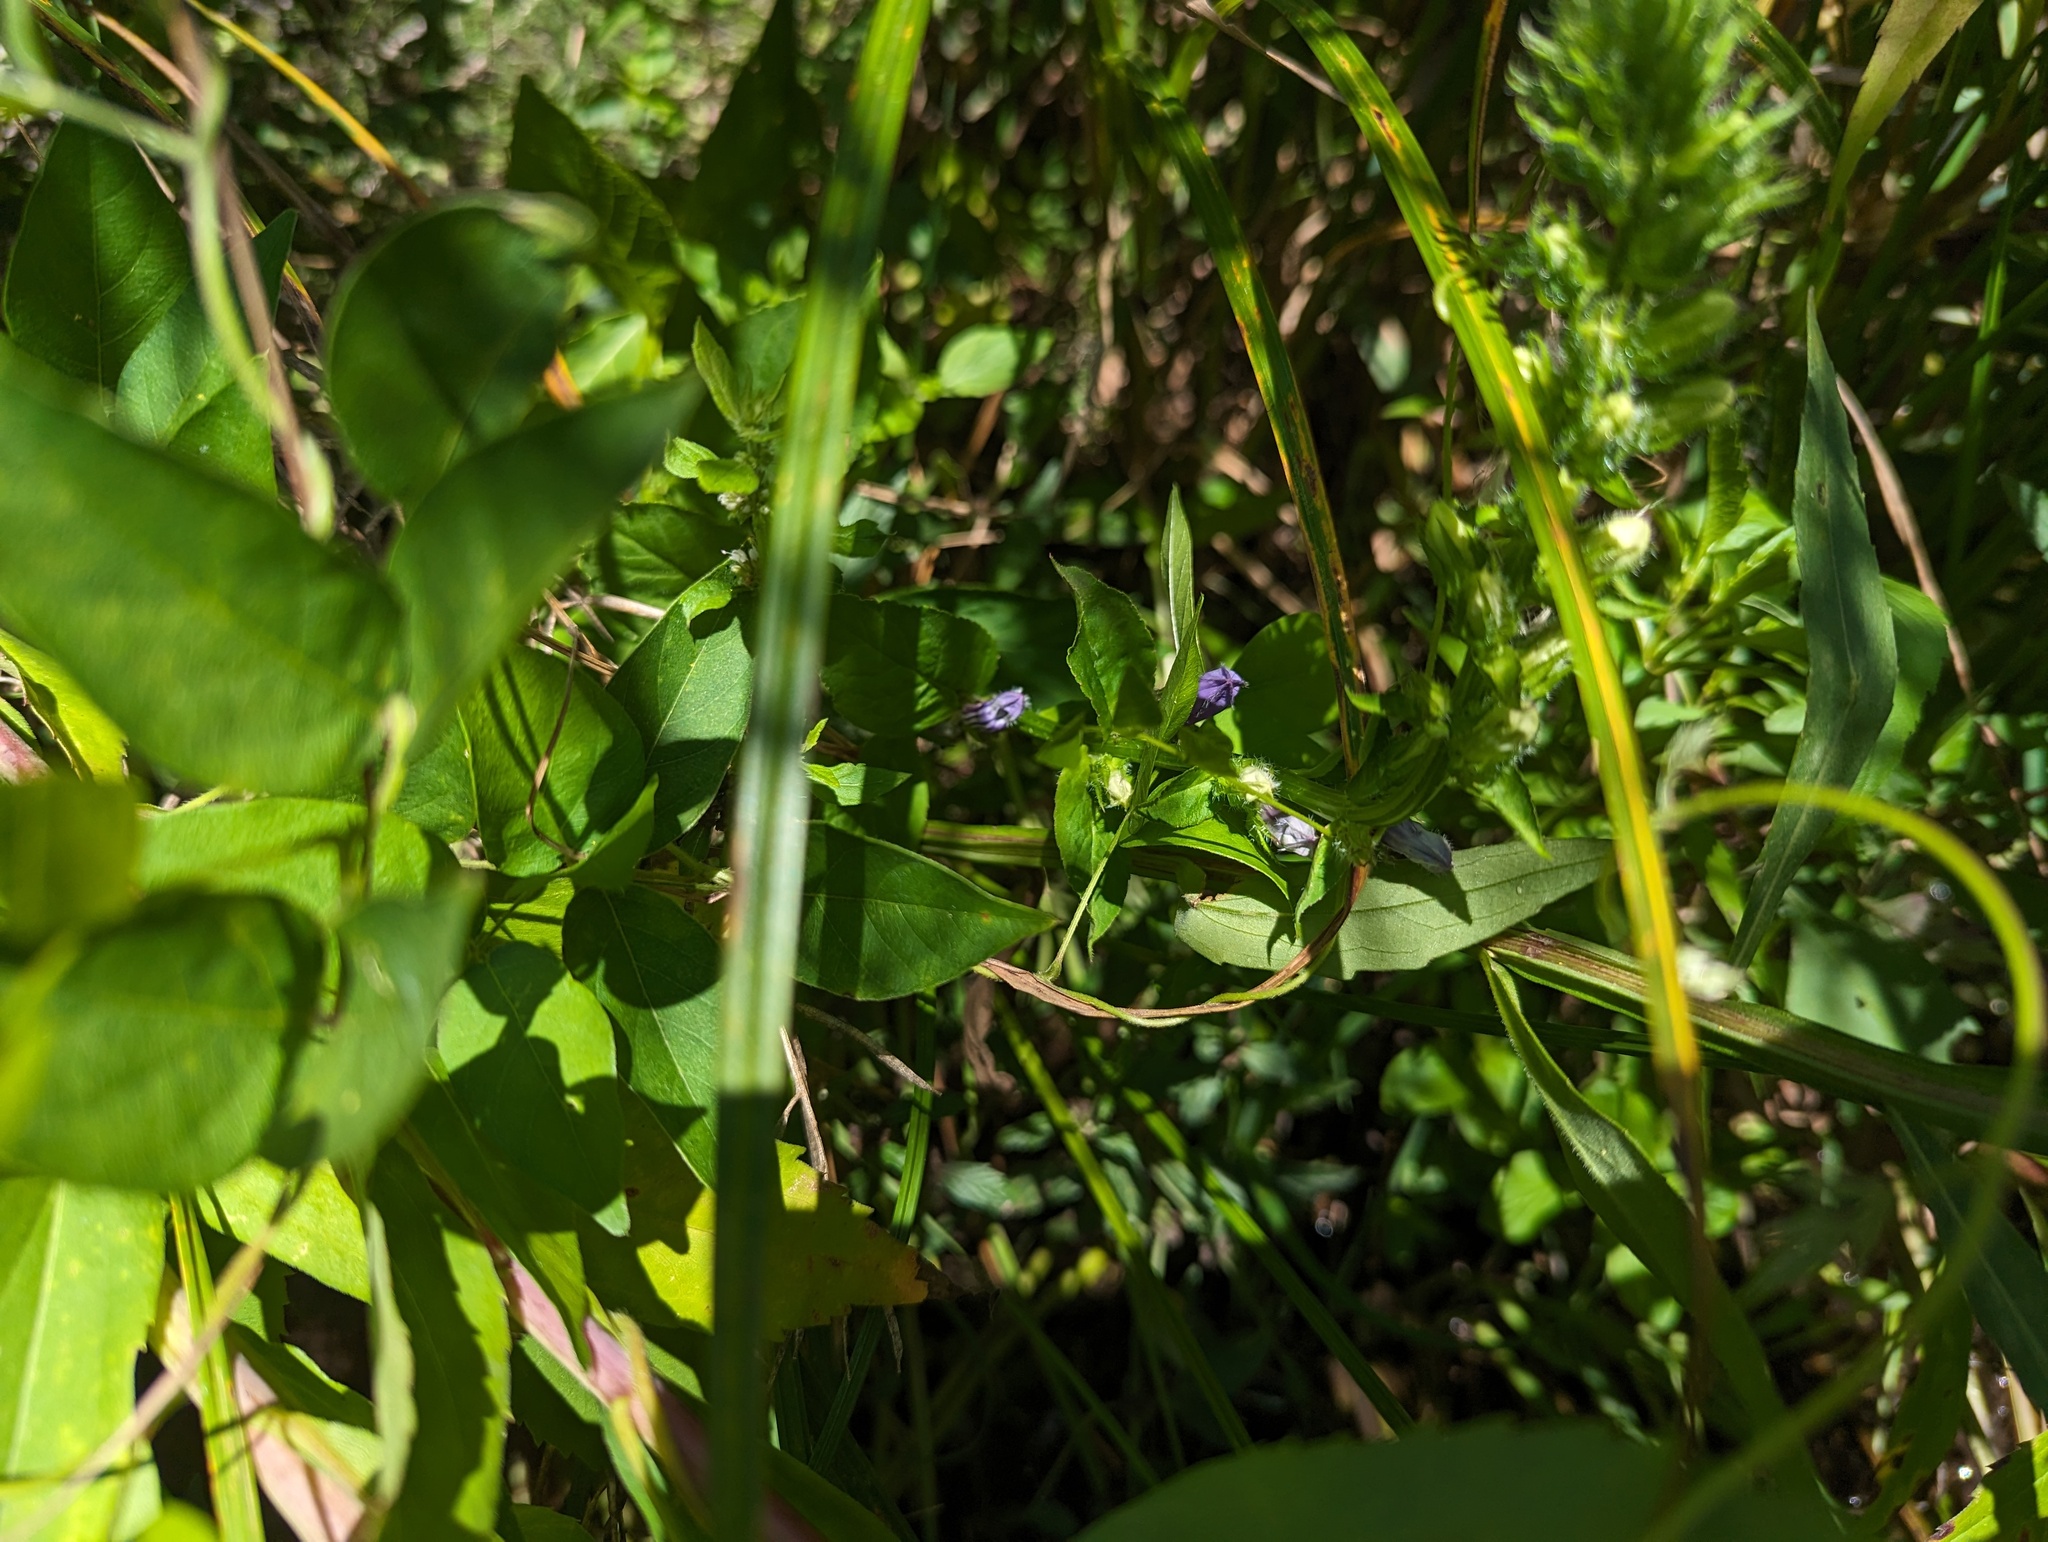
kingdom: Plantae
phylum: Tracheophyta
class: Magnoliopsida
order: Asterales
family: Campanulaceae
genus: Lobelia
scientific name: Lobelia siphilitica
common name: Great lobelia
